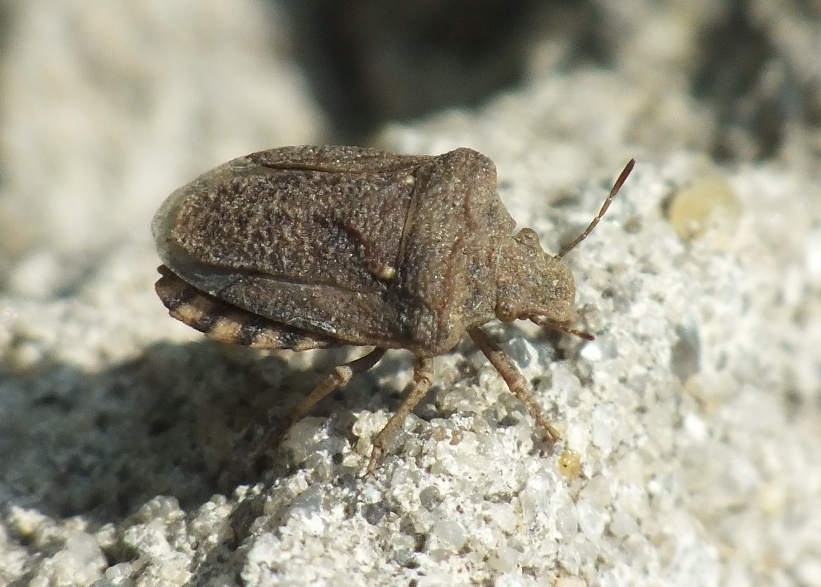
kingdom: Animalia
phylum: Arthropoda
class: Insecta
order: Hemiptera
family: Pentatomidae
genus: Leprosoma
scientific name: Leprosoma inconspicuum
